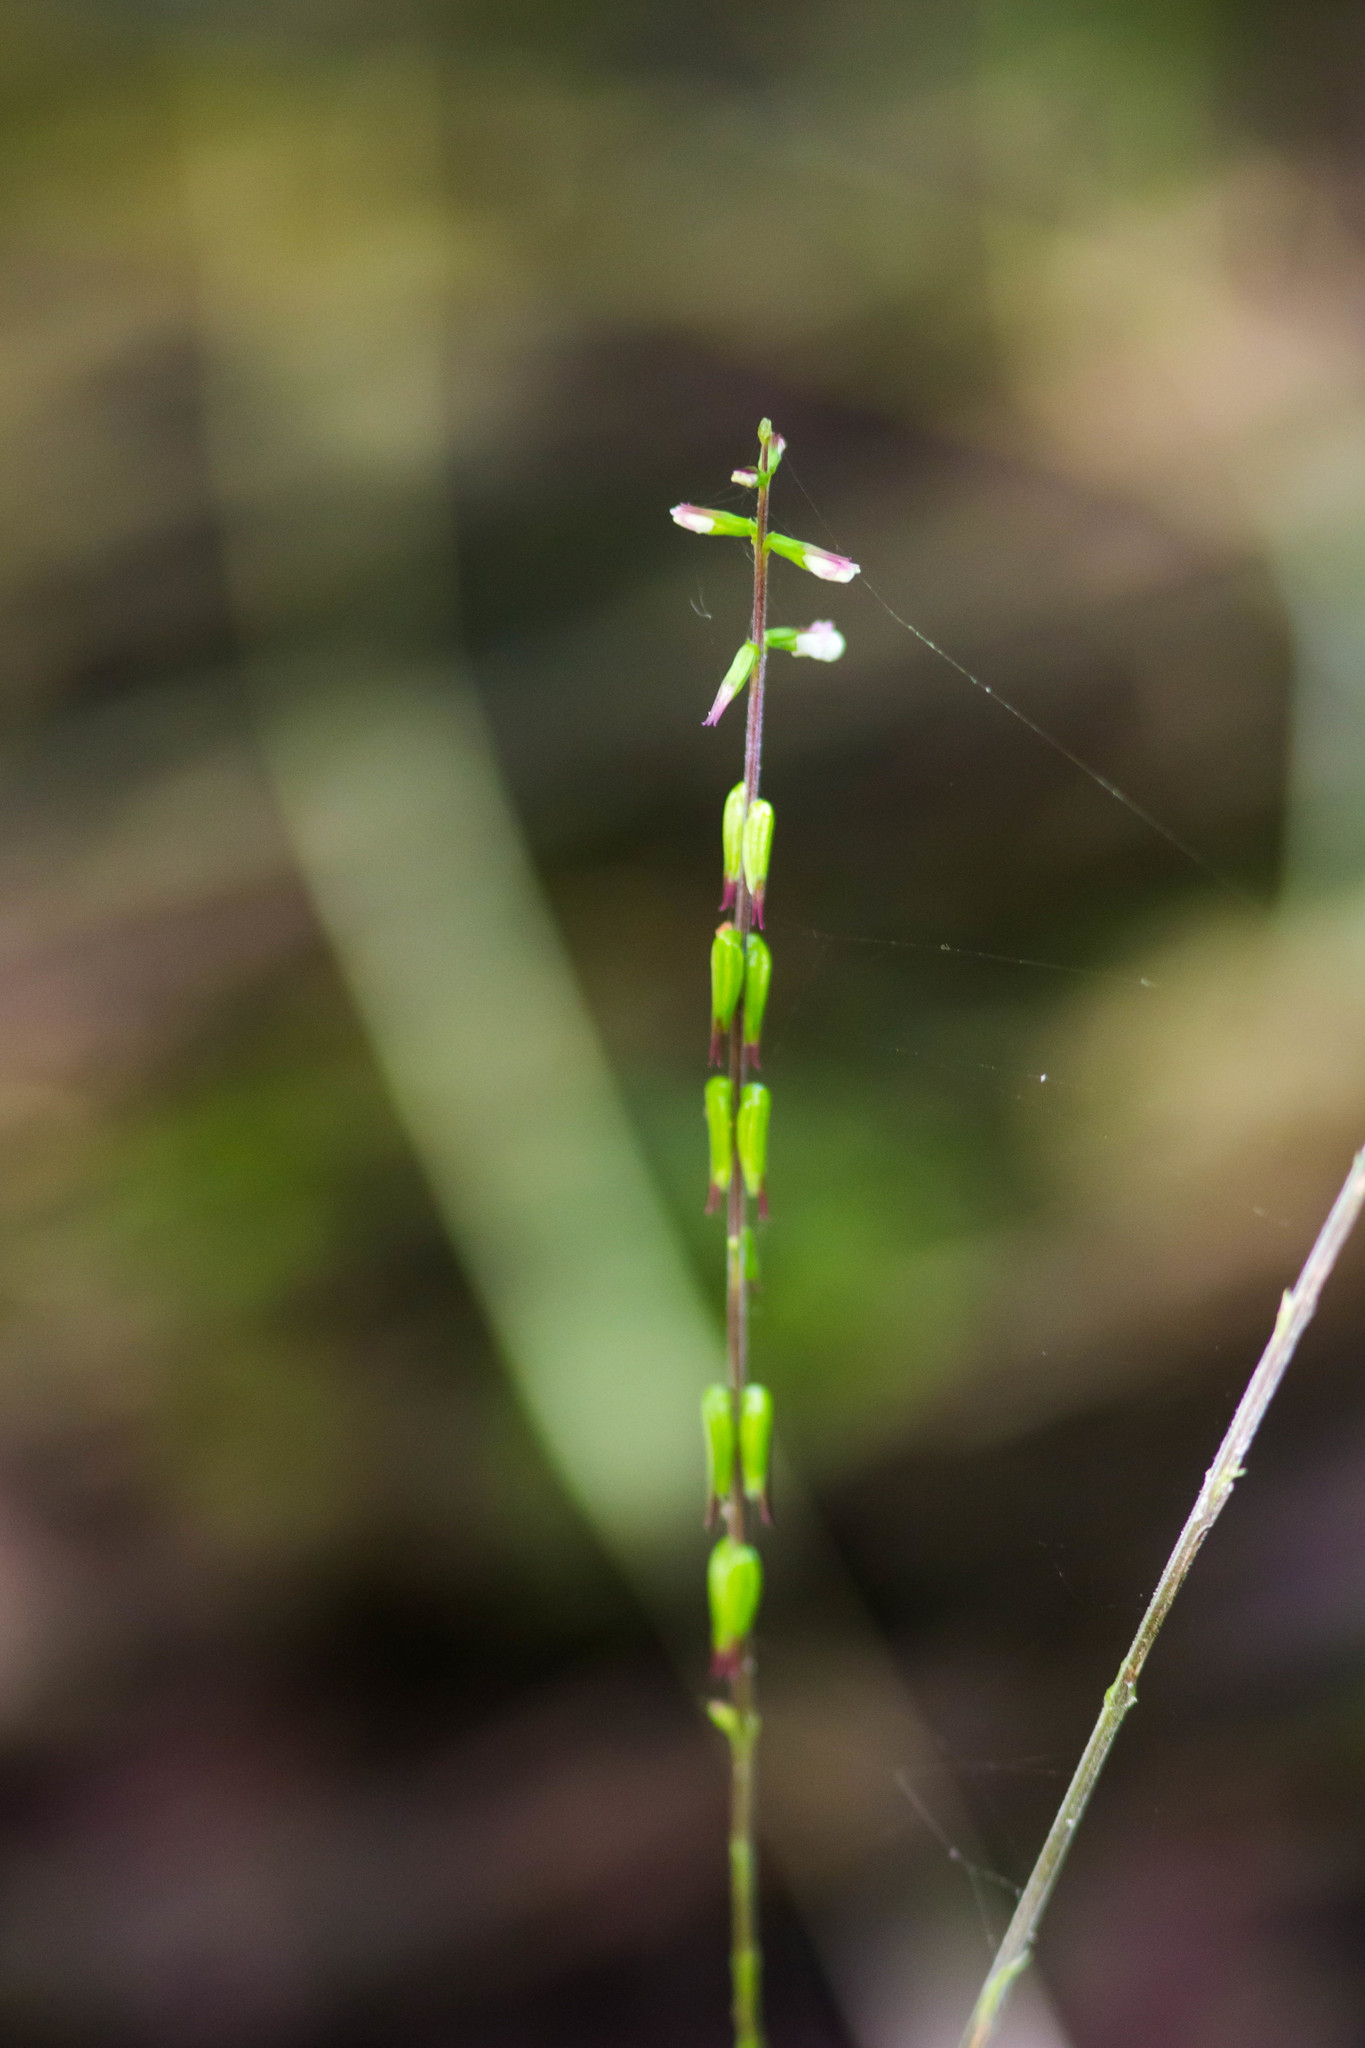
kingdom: Plantae
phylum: Tracheophyta
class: Magnoliopsida
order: Lamiales
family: Phrymaceae
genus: Phryma
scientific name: Phryma leptostachya
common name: American lopseed
